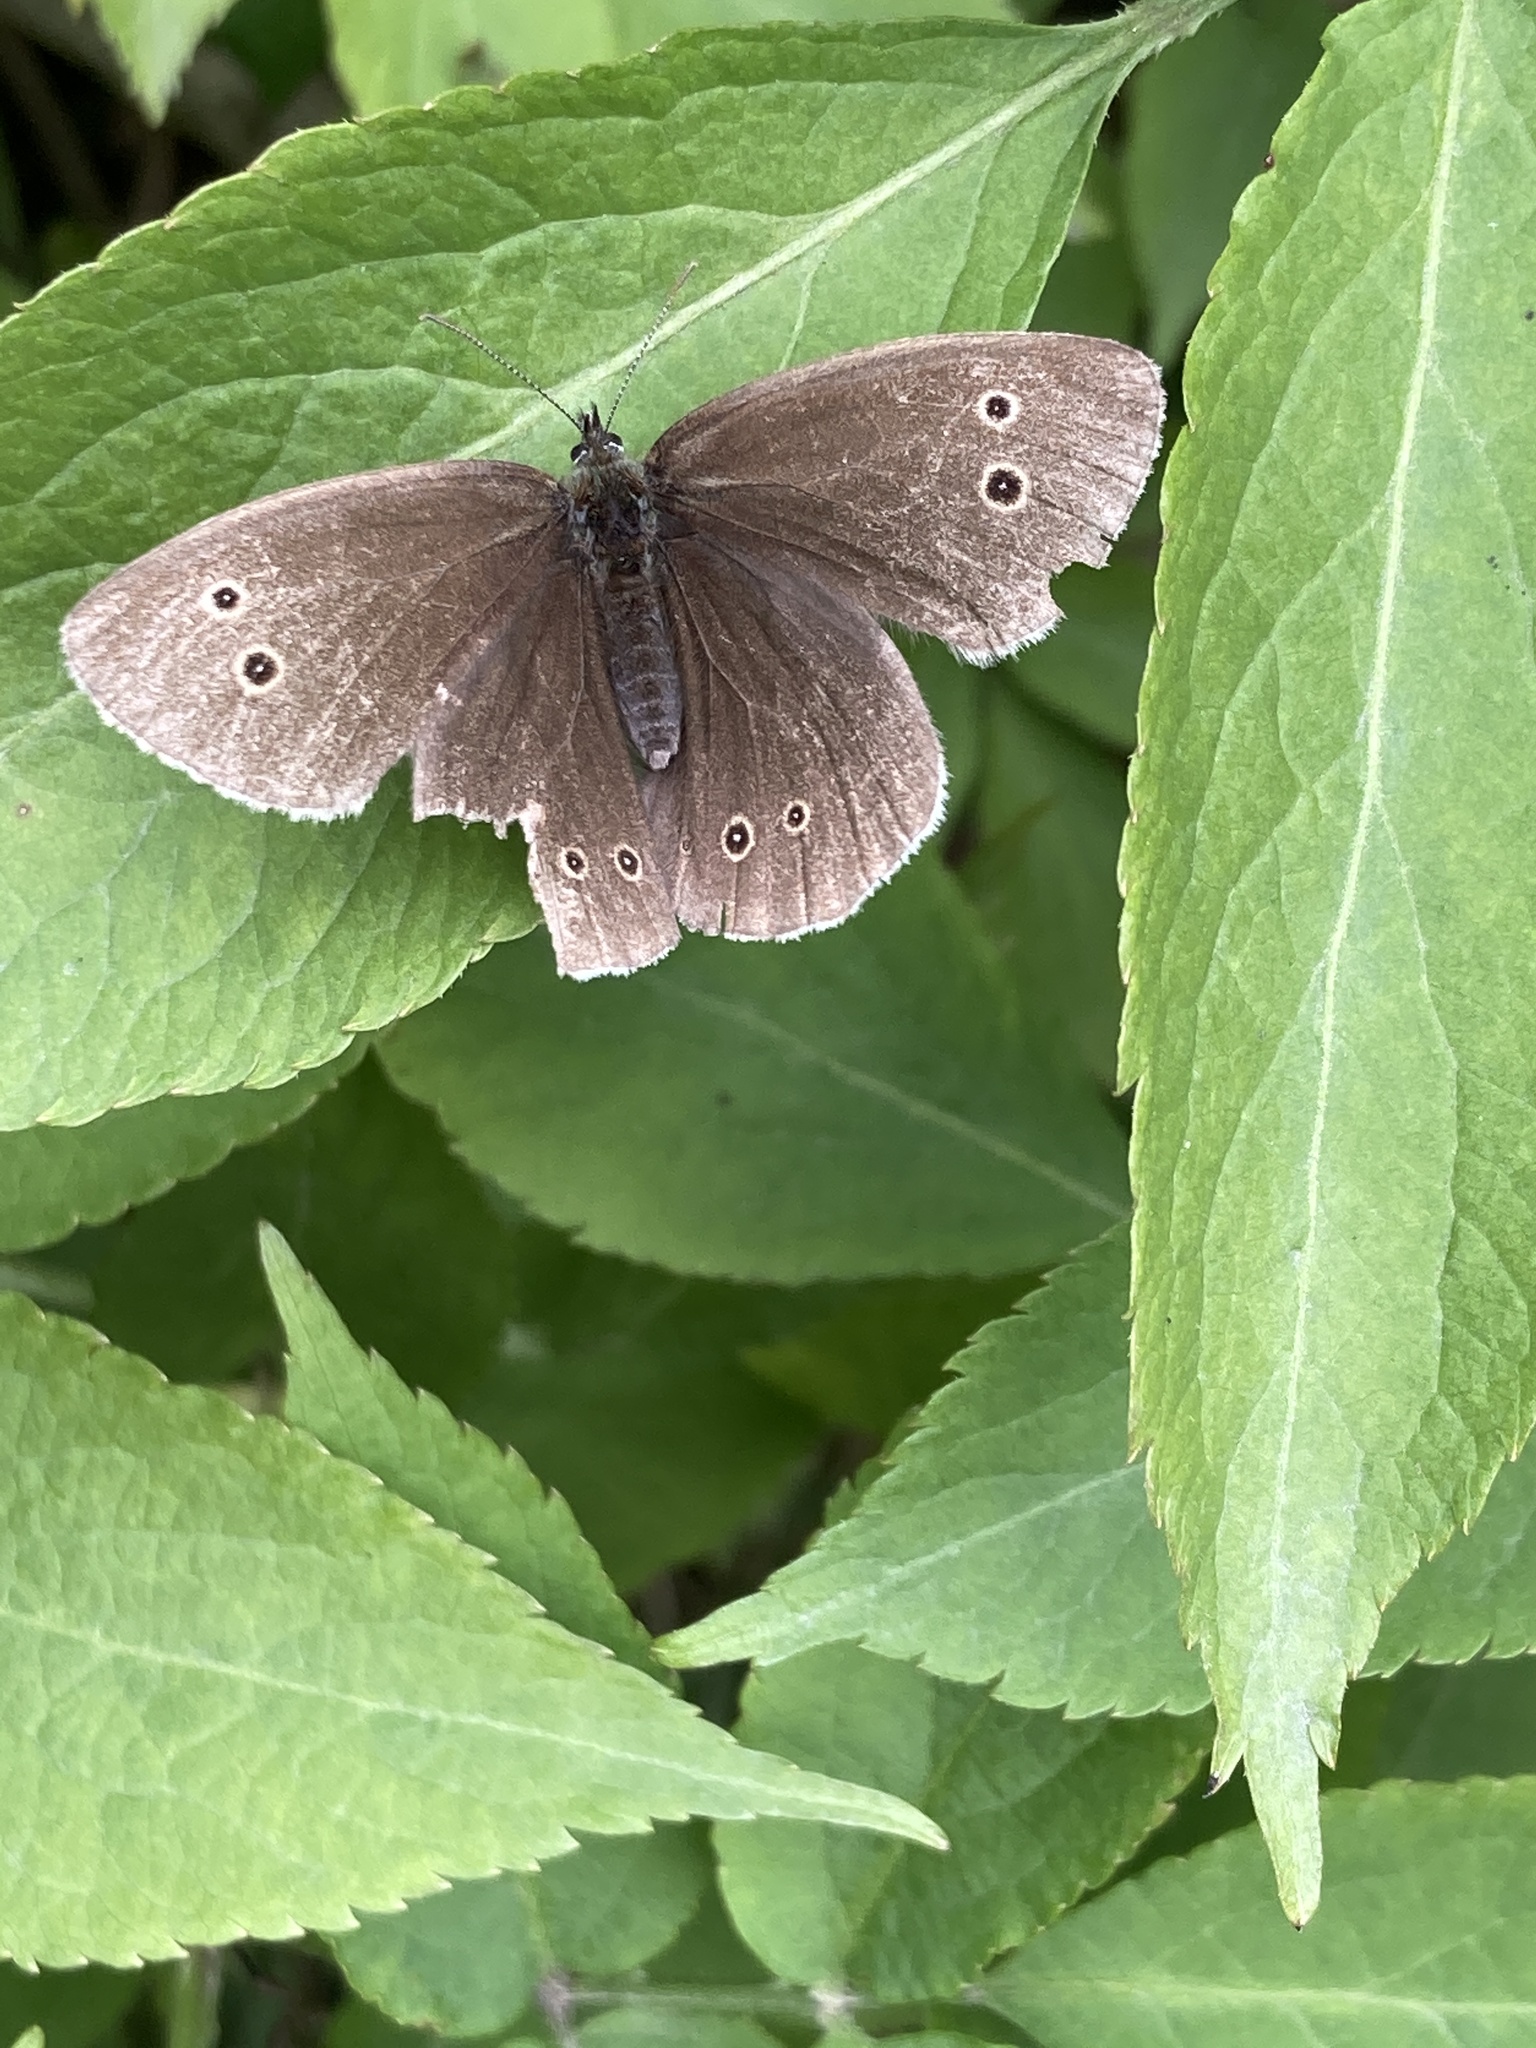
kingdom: Animalia
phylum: Arthropoda
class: Insecta
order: Lepidoptera
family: Nymphalidae
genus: Aphantopus
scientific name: Aphantopus hyperantus
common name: Ringlet
